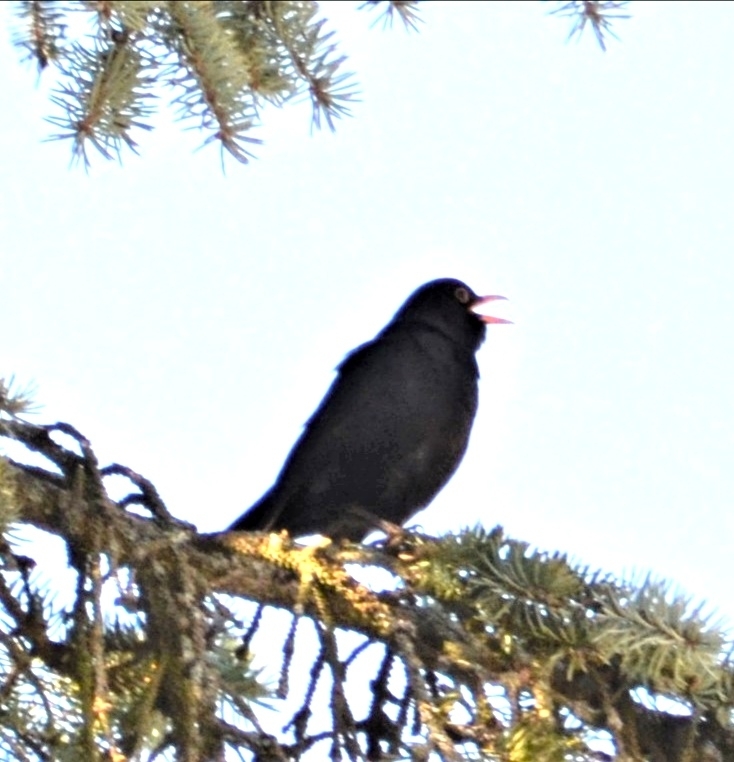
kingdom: Animalia
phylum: Chordata
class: Aves
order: Passeriformes
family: Turdidae
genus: Turdus
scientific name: Turdus merula
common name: Common blackbird
